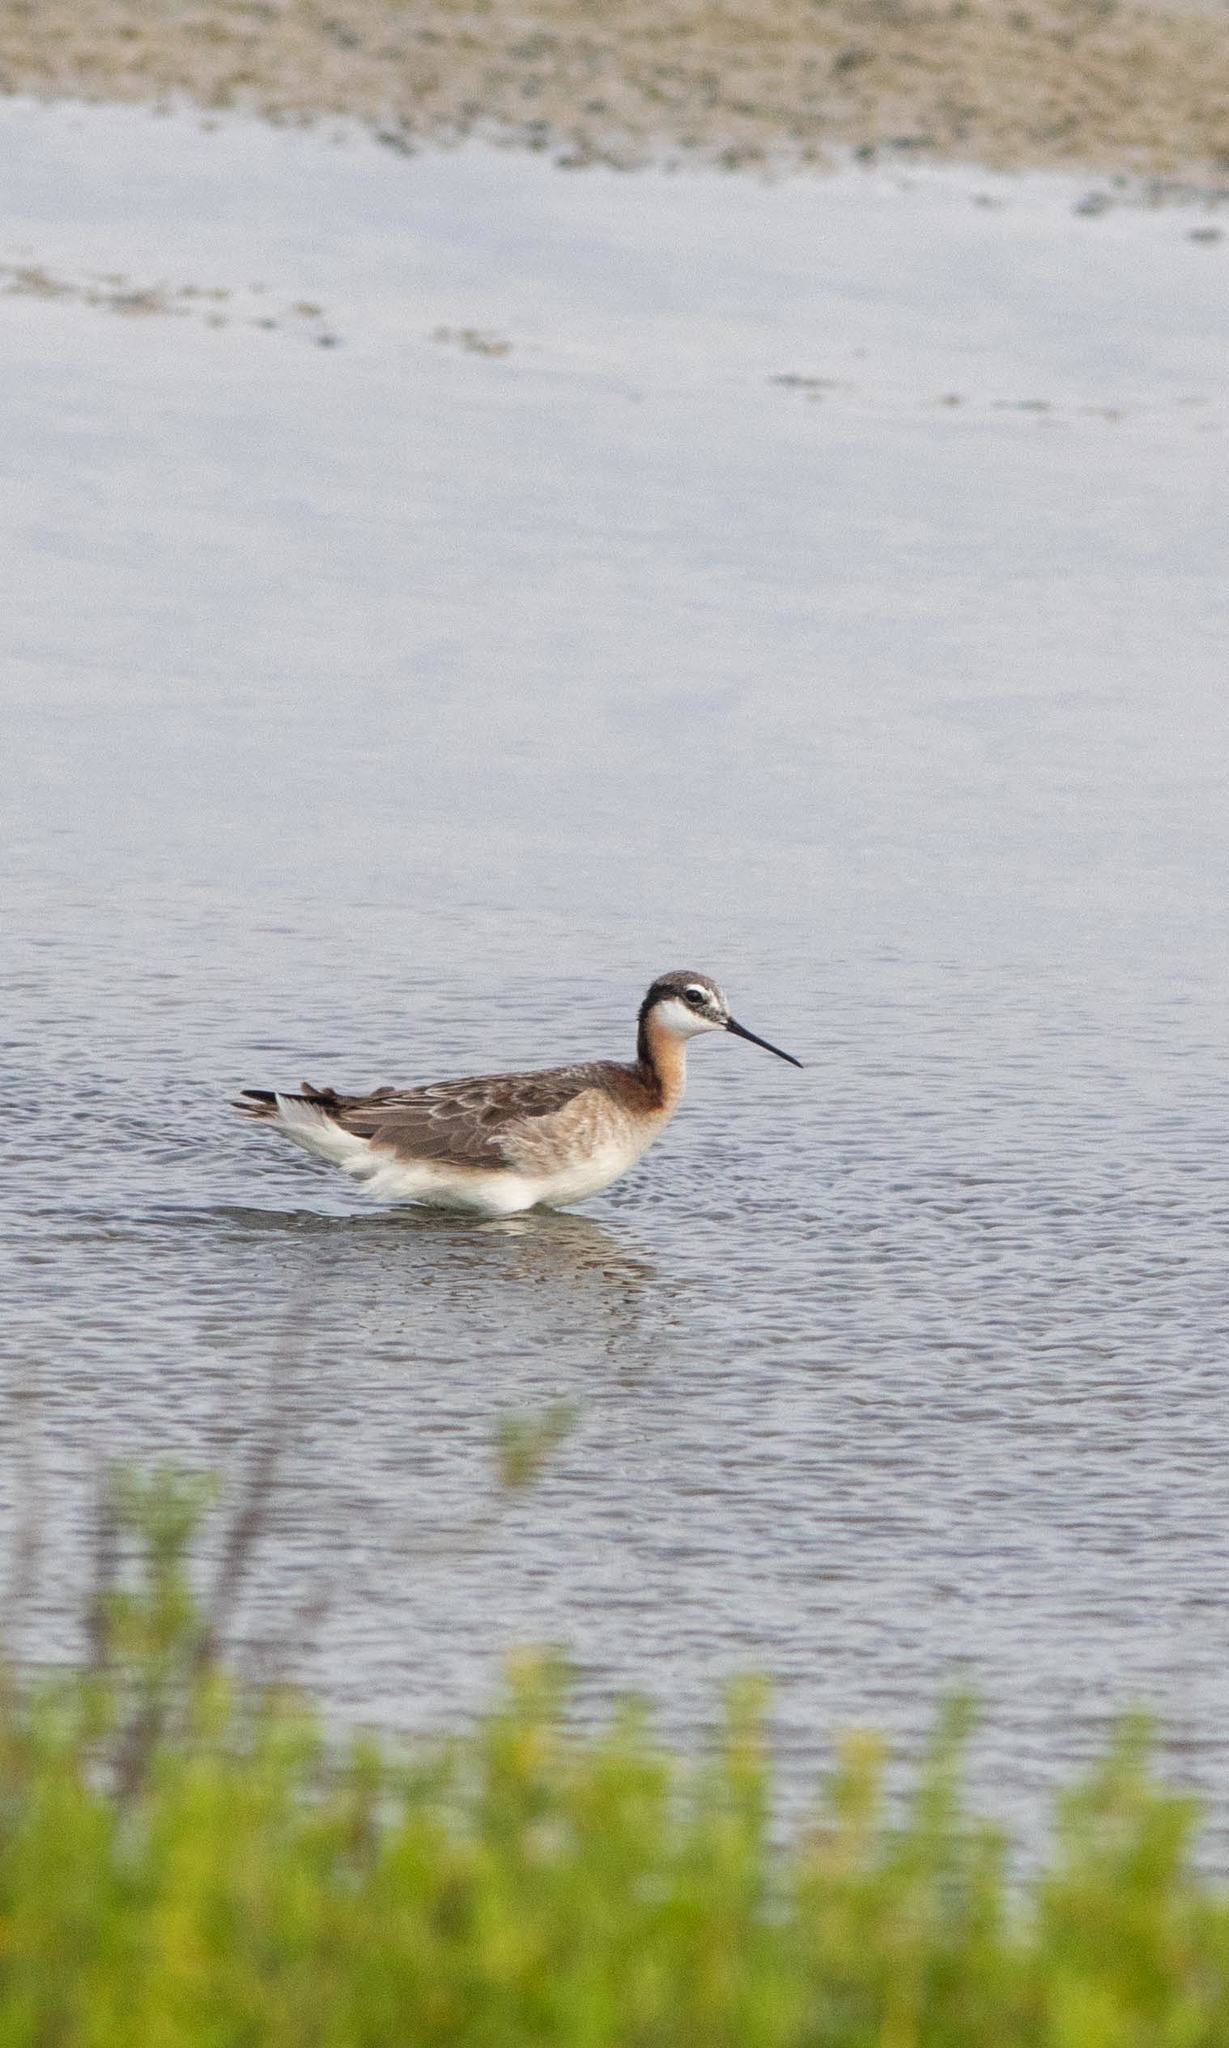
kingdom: Animalia
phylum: Chordata
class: Aves
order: Charadriiformes
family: Scolopacidae
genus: Phalaropus
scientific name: Phalaropus tricolor
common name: Wilson's phalarope
